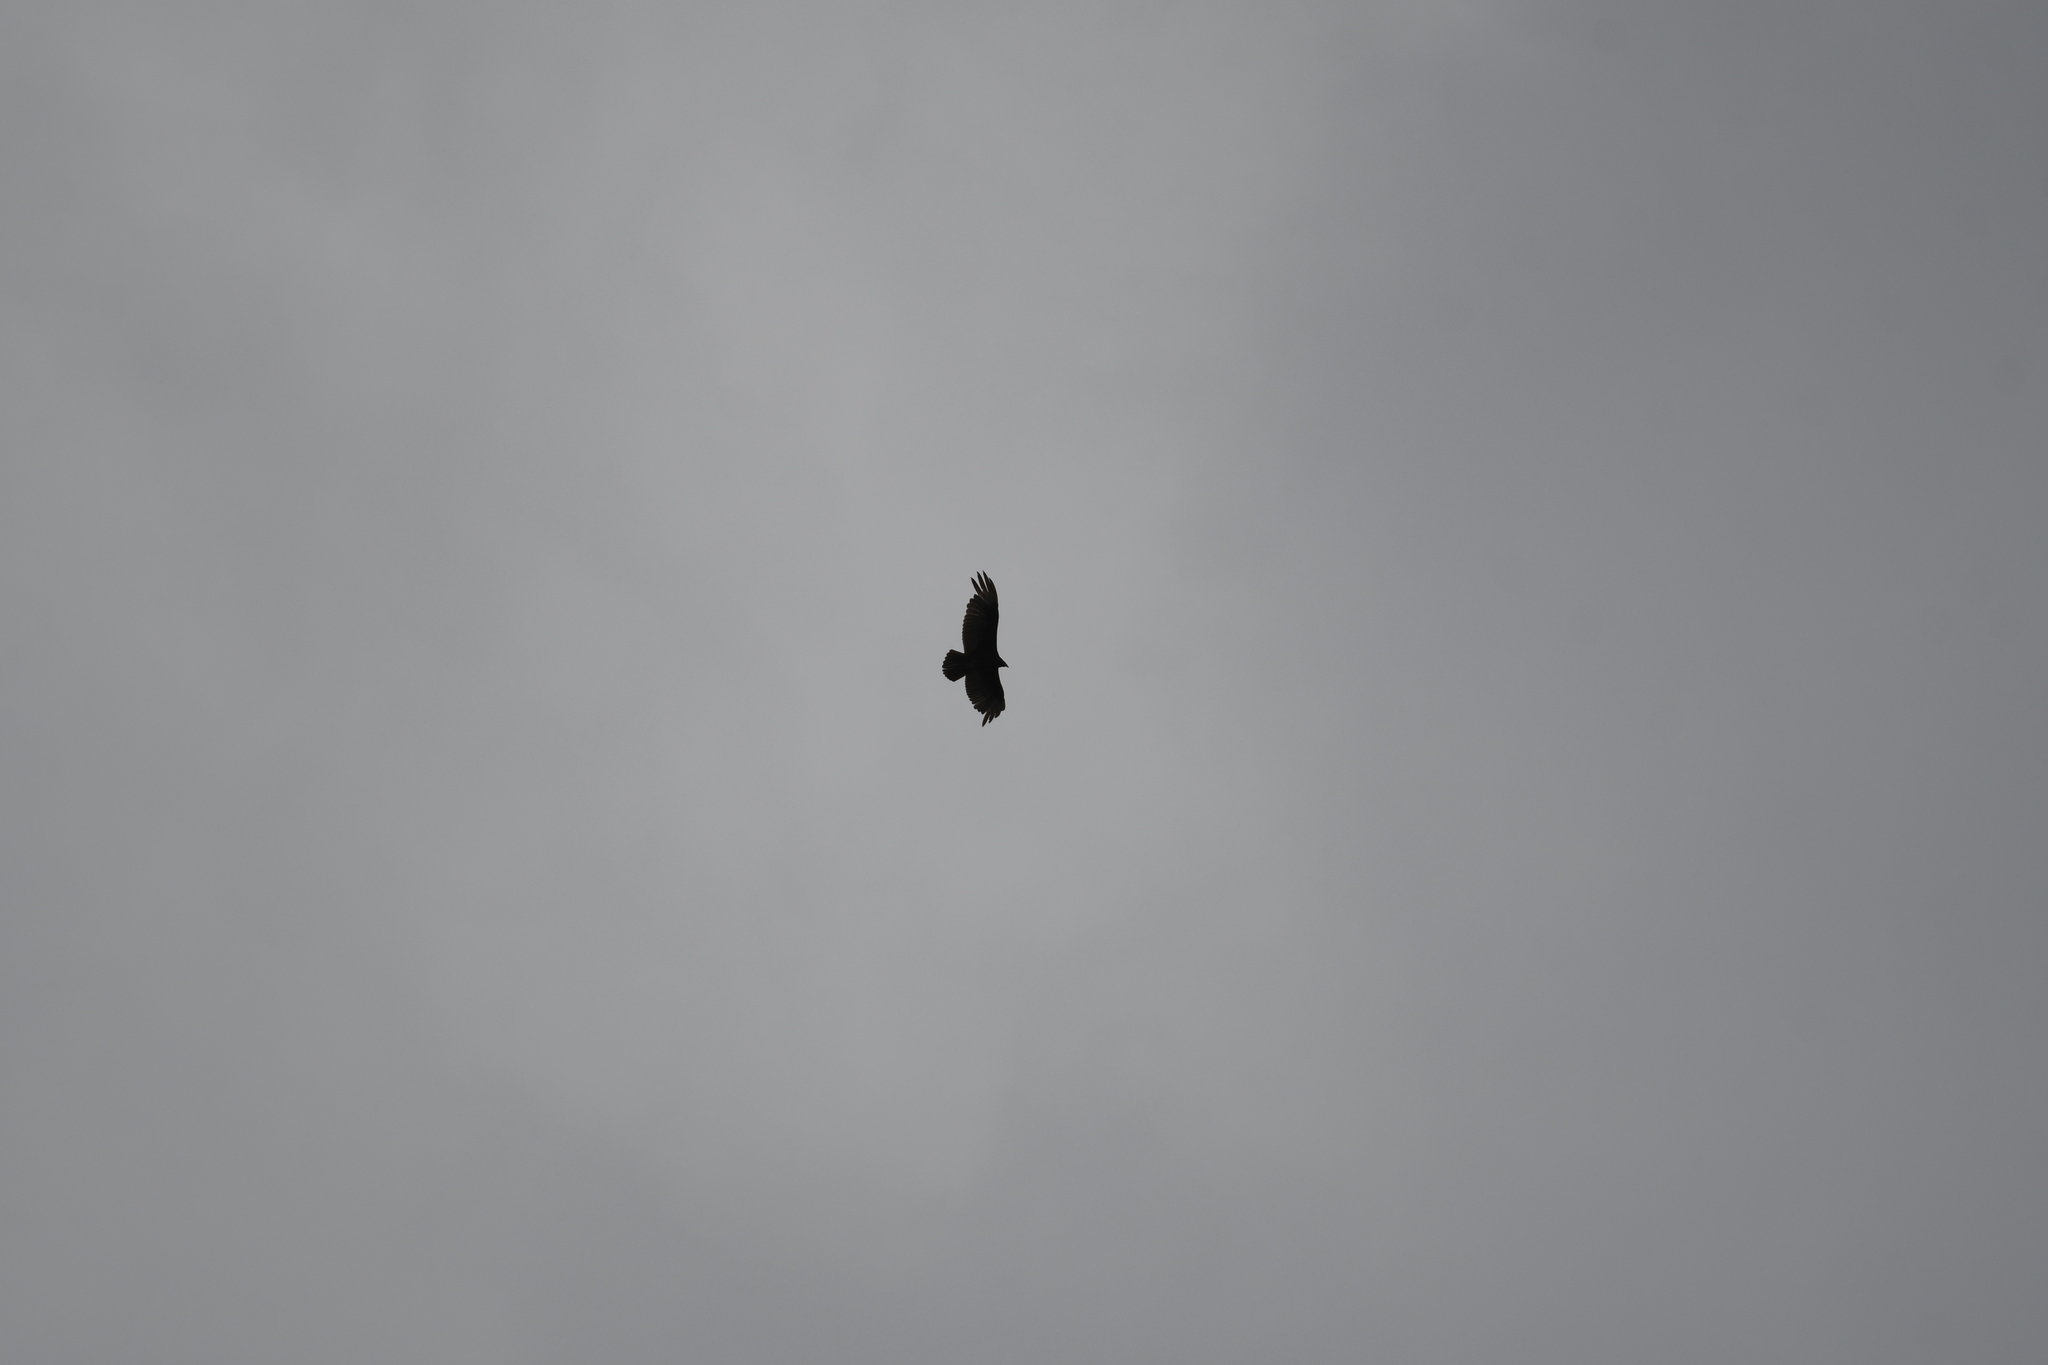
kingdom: Animalia
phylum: Chordata
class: Aves
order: Accipitriformes
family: Cathartidae
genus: Cathartes
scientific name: Cathartes aura
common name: Turkey vulture
